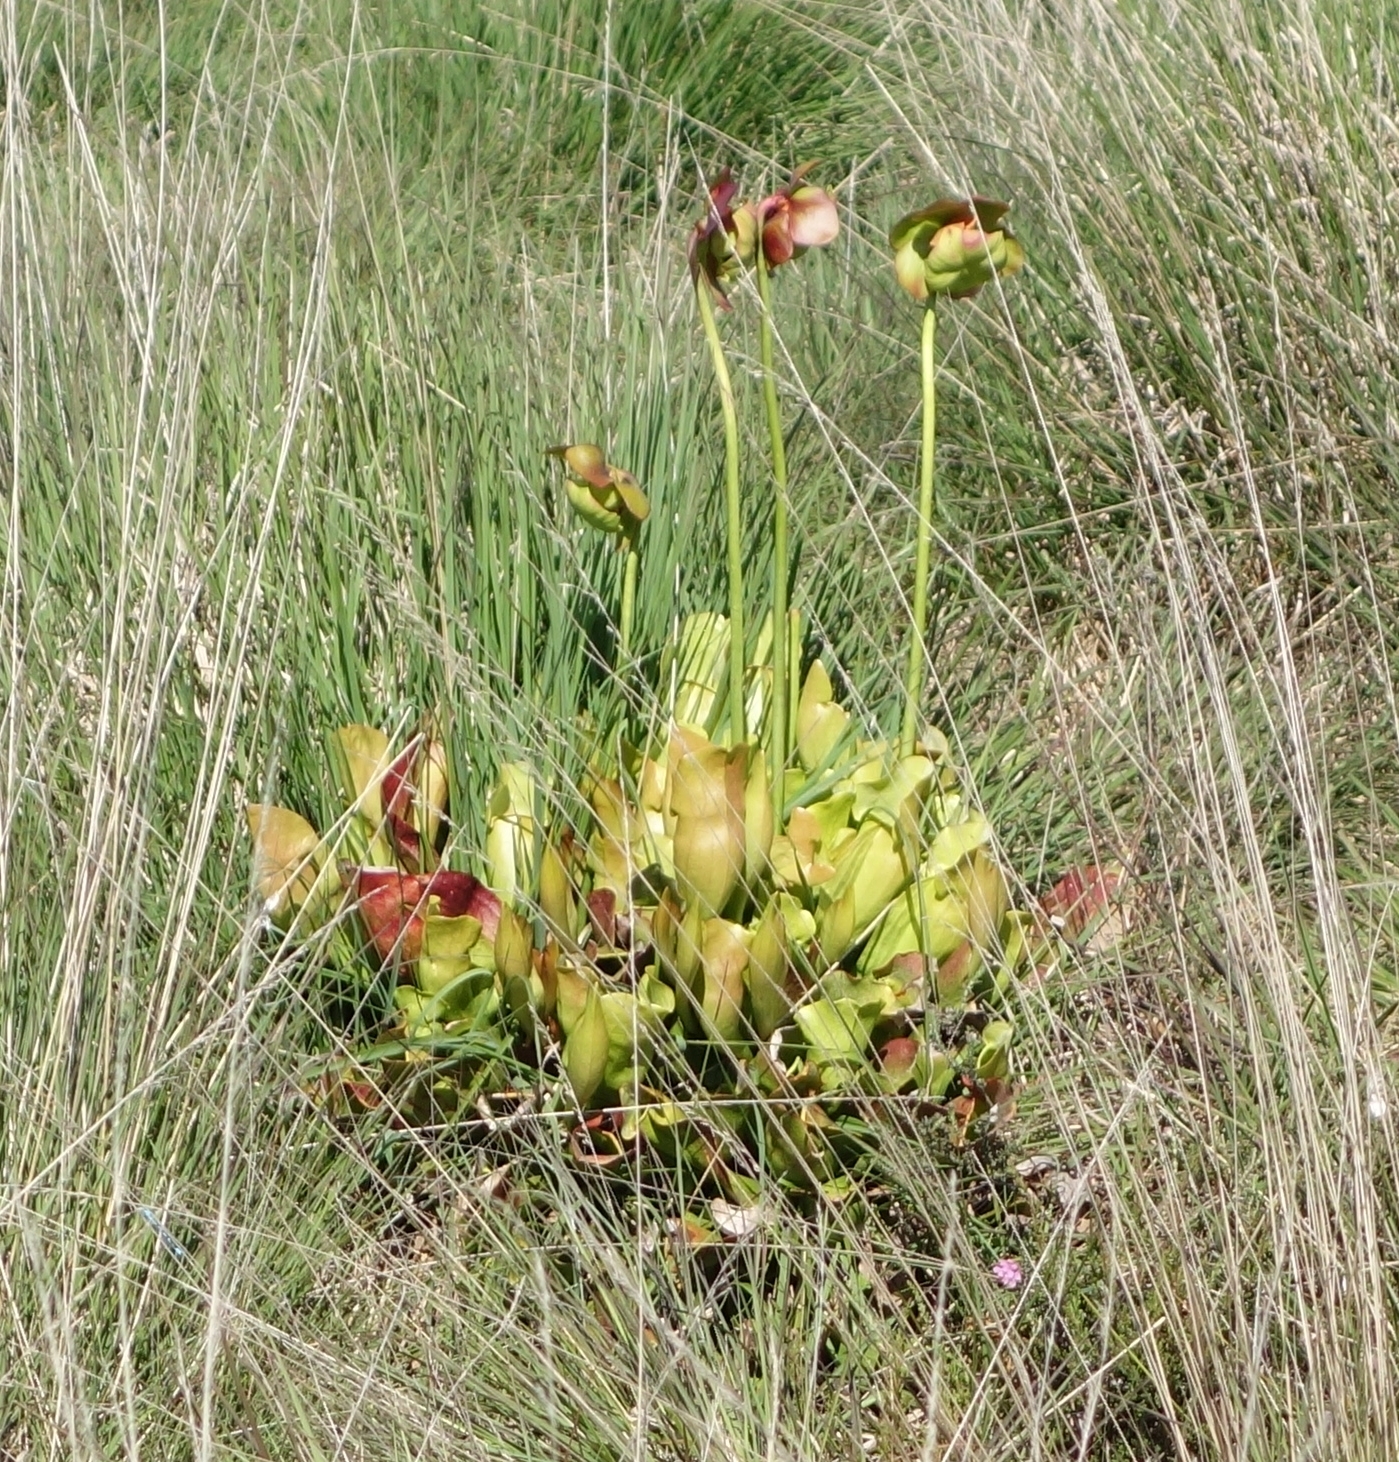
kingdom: Plantae
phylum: Tracheophyta
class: Magnoliopsida
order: Ericales
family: Sarraceniaceae
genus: Sarracenia
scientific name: Sarracenia purpurea
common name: Pitcherplant
